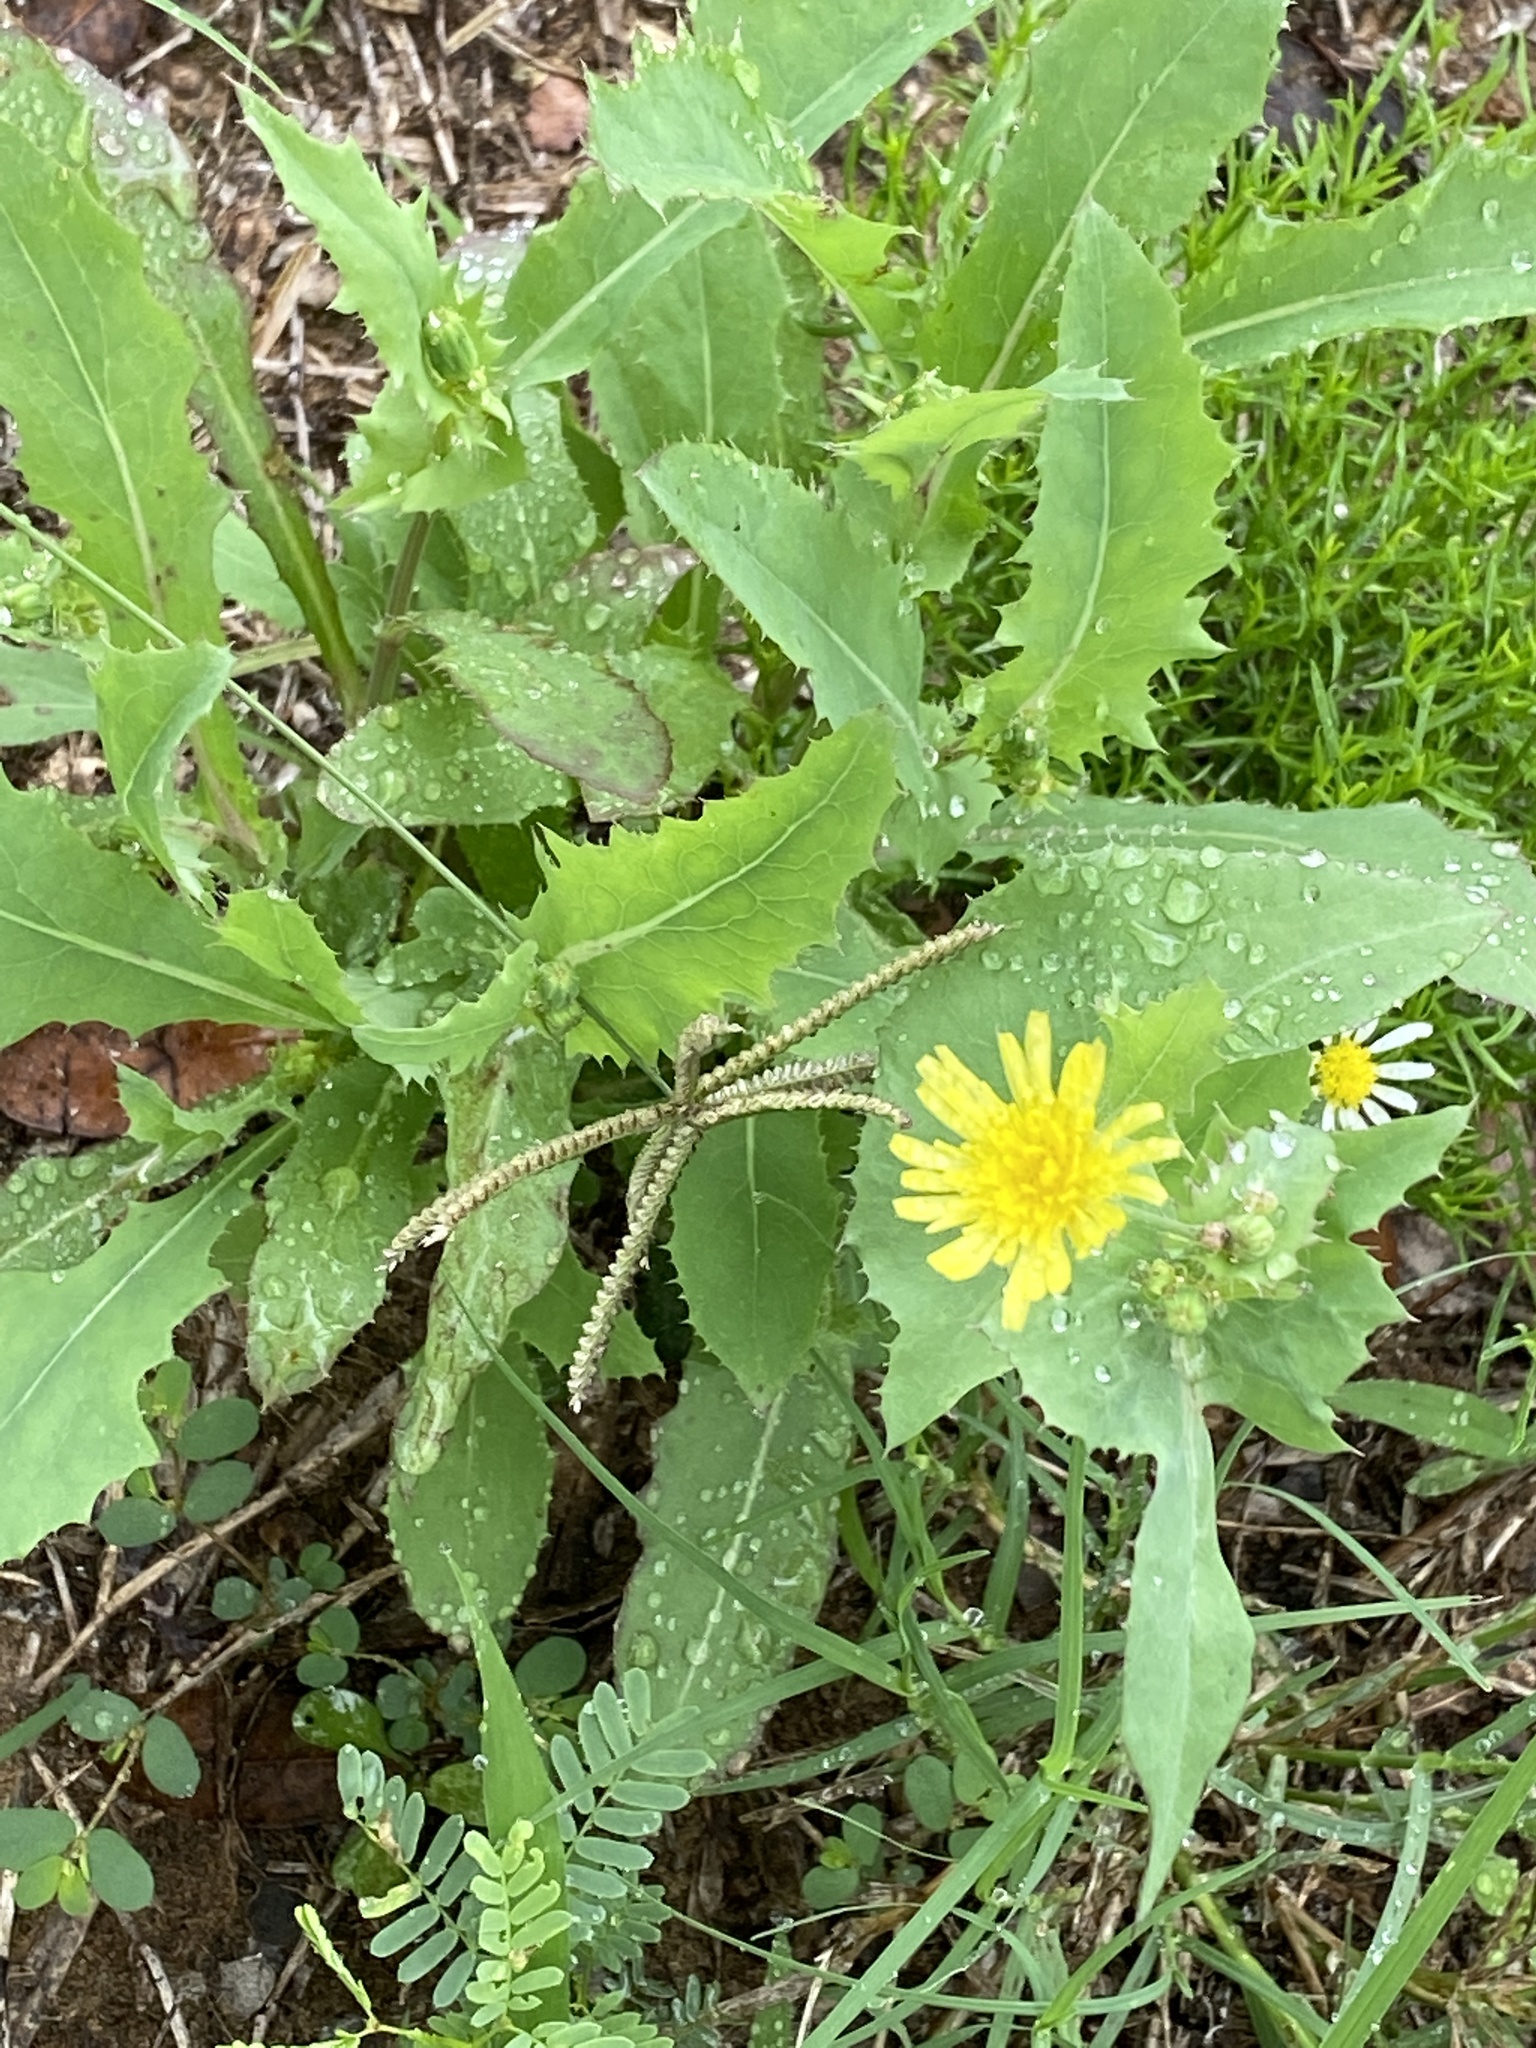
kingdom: Plantae
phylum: Tracheophyta
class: Magnoliopsida
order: Asterales
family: Asteraceae
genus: Sonchus
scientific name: Sonchus oleraceus
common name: Common sowthistle
